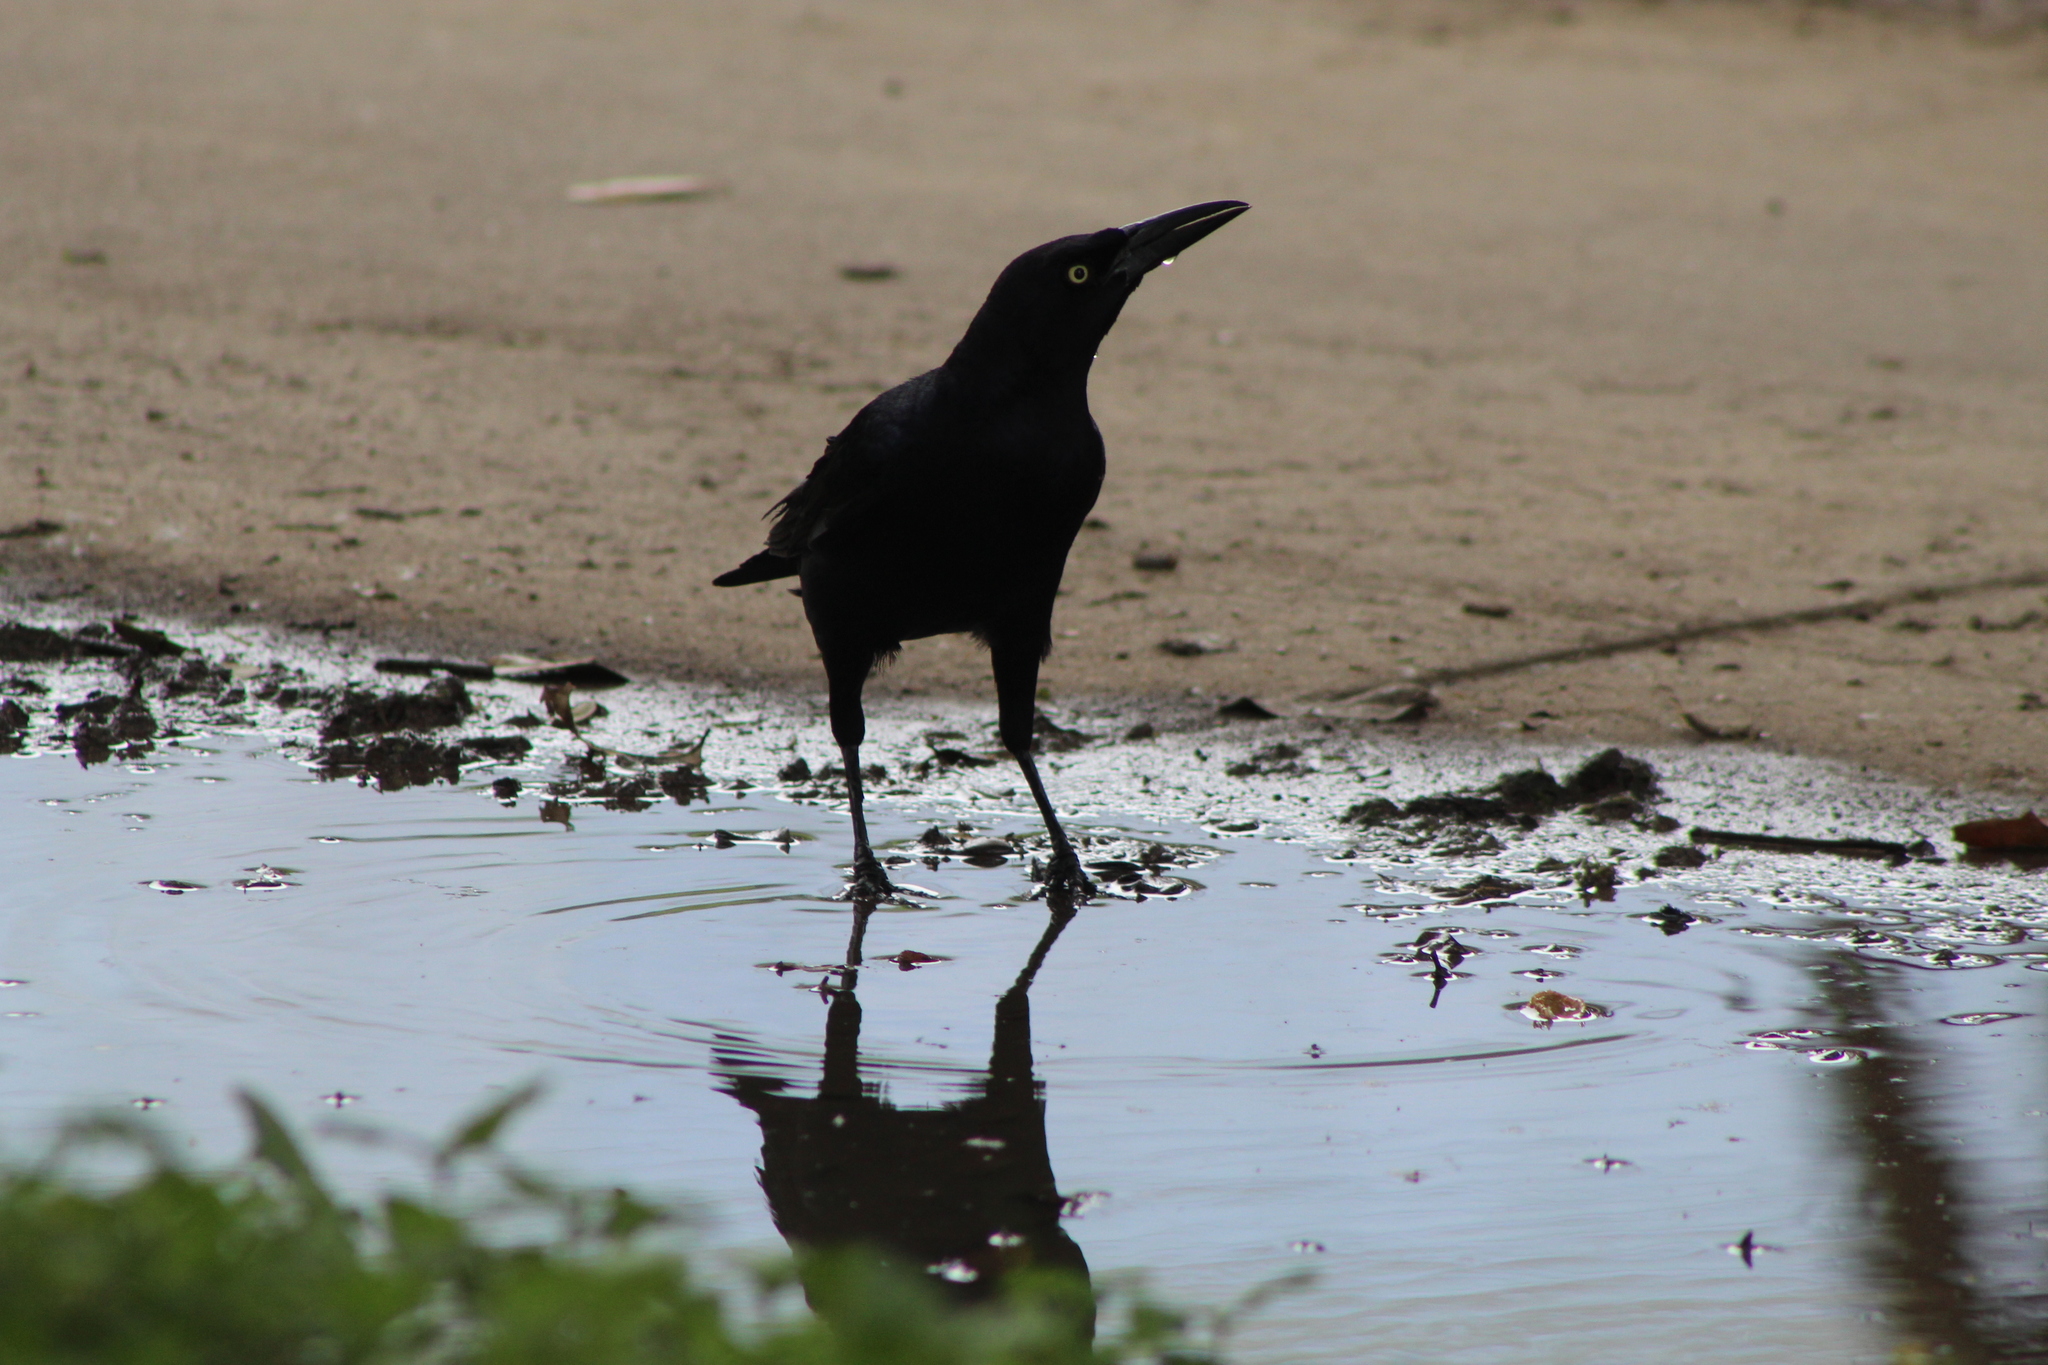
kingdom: Animalia
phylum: Chordata
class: Aves
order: Passeriformes
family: Icteridae
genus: Quiscalus
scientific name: Quiscalus mexicanus
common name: Great-tailed grackle
